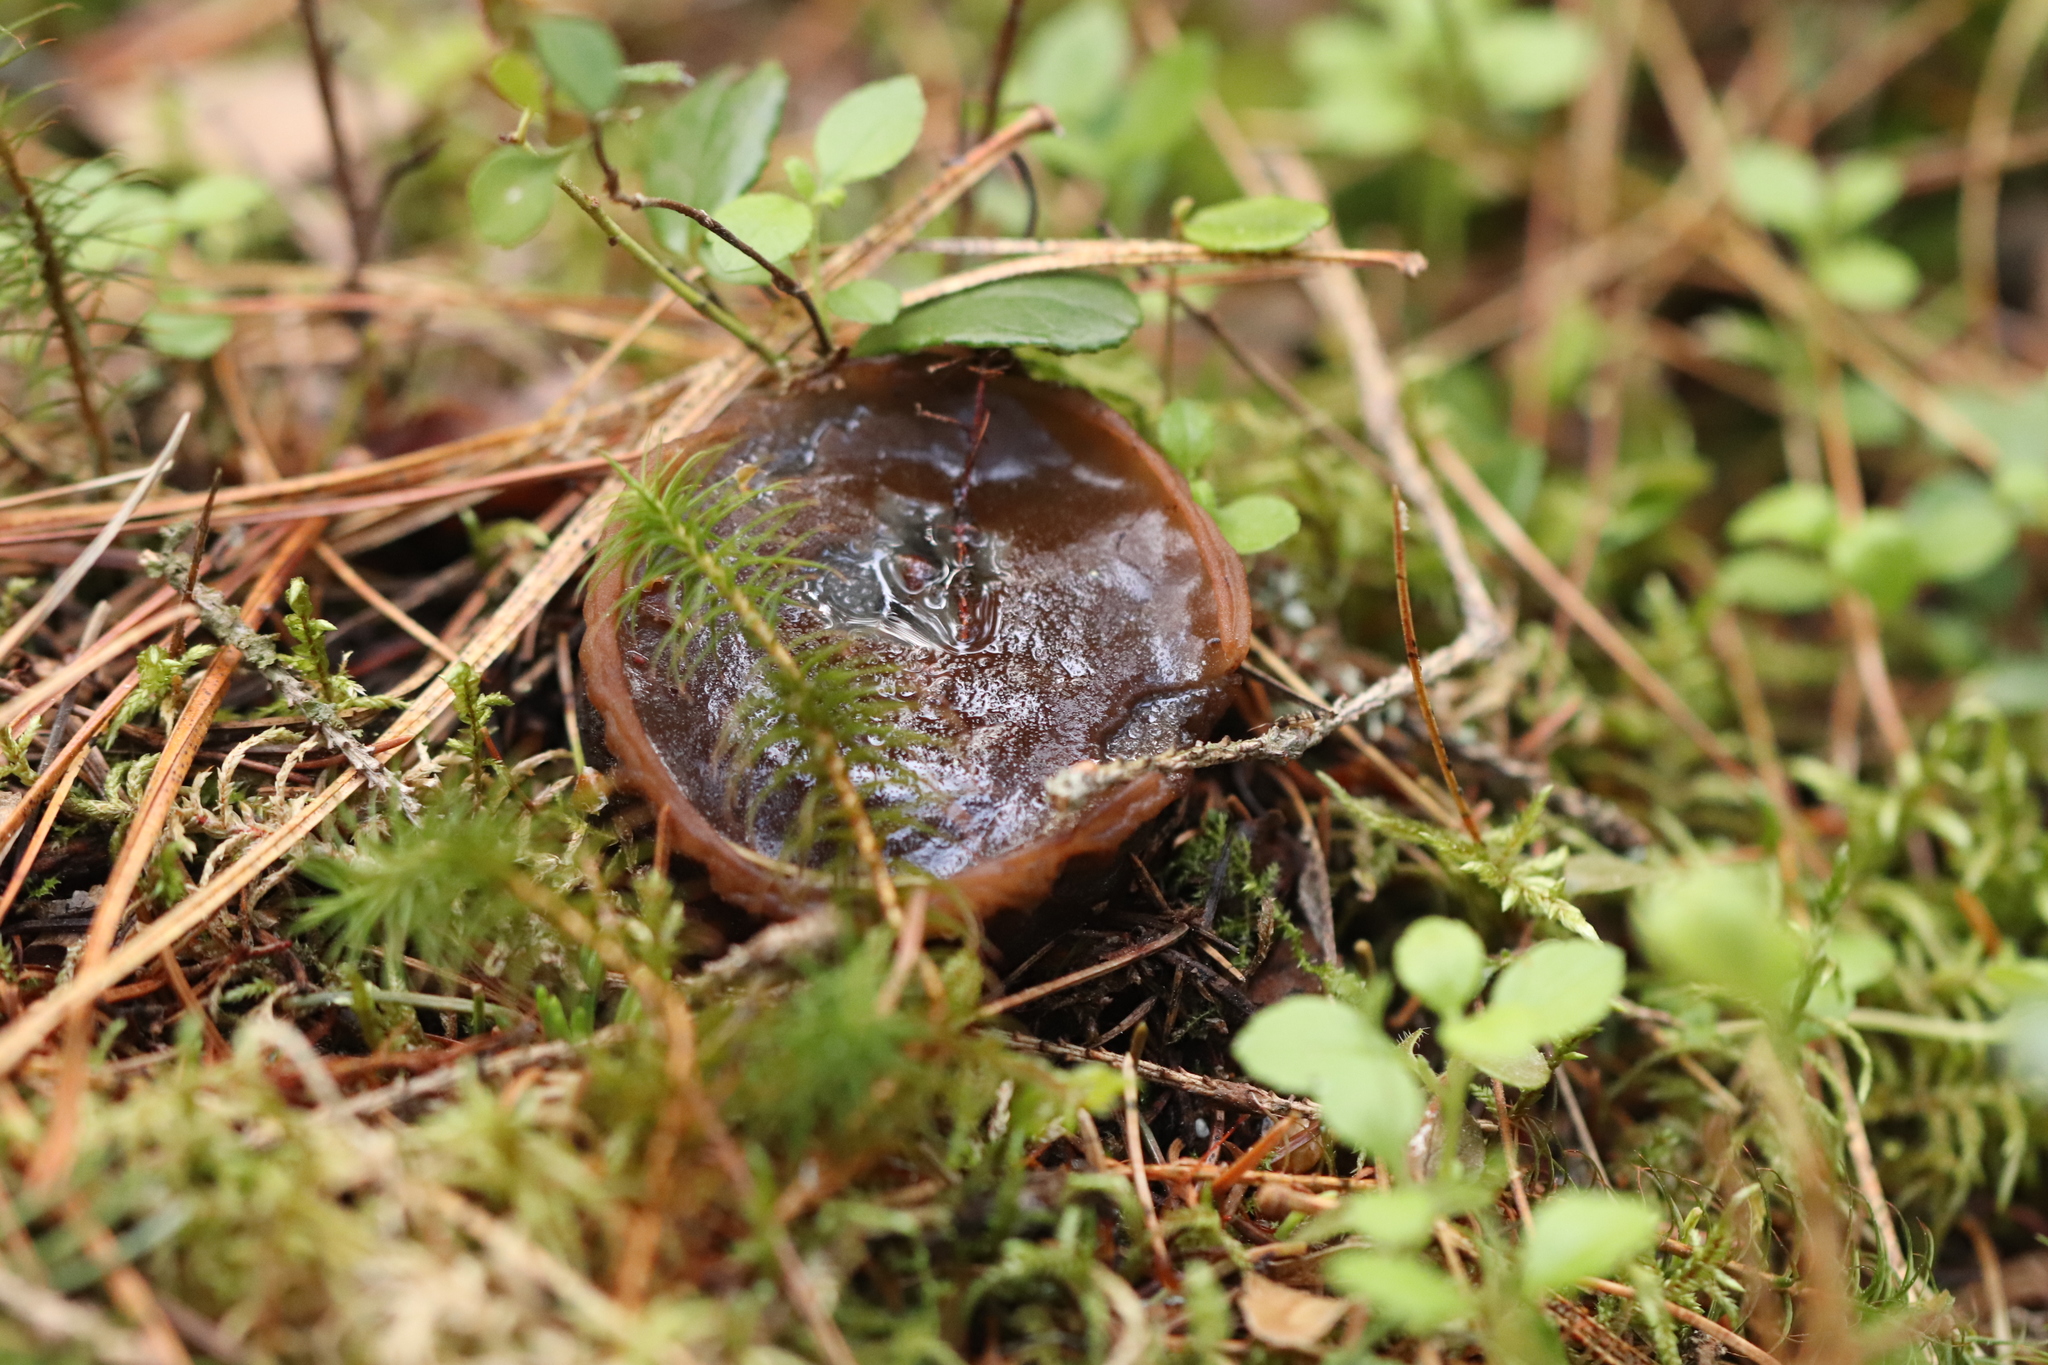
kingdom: Fungi
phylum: Ascomycota
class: Pezizomycetes
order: Pezizales
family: Sarcosomataceae
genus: Sarcosoma
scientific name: Sarcosoma globosum
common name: Charred-pancake cup
